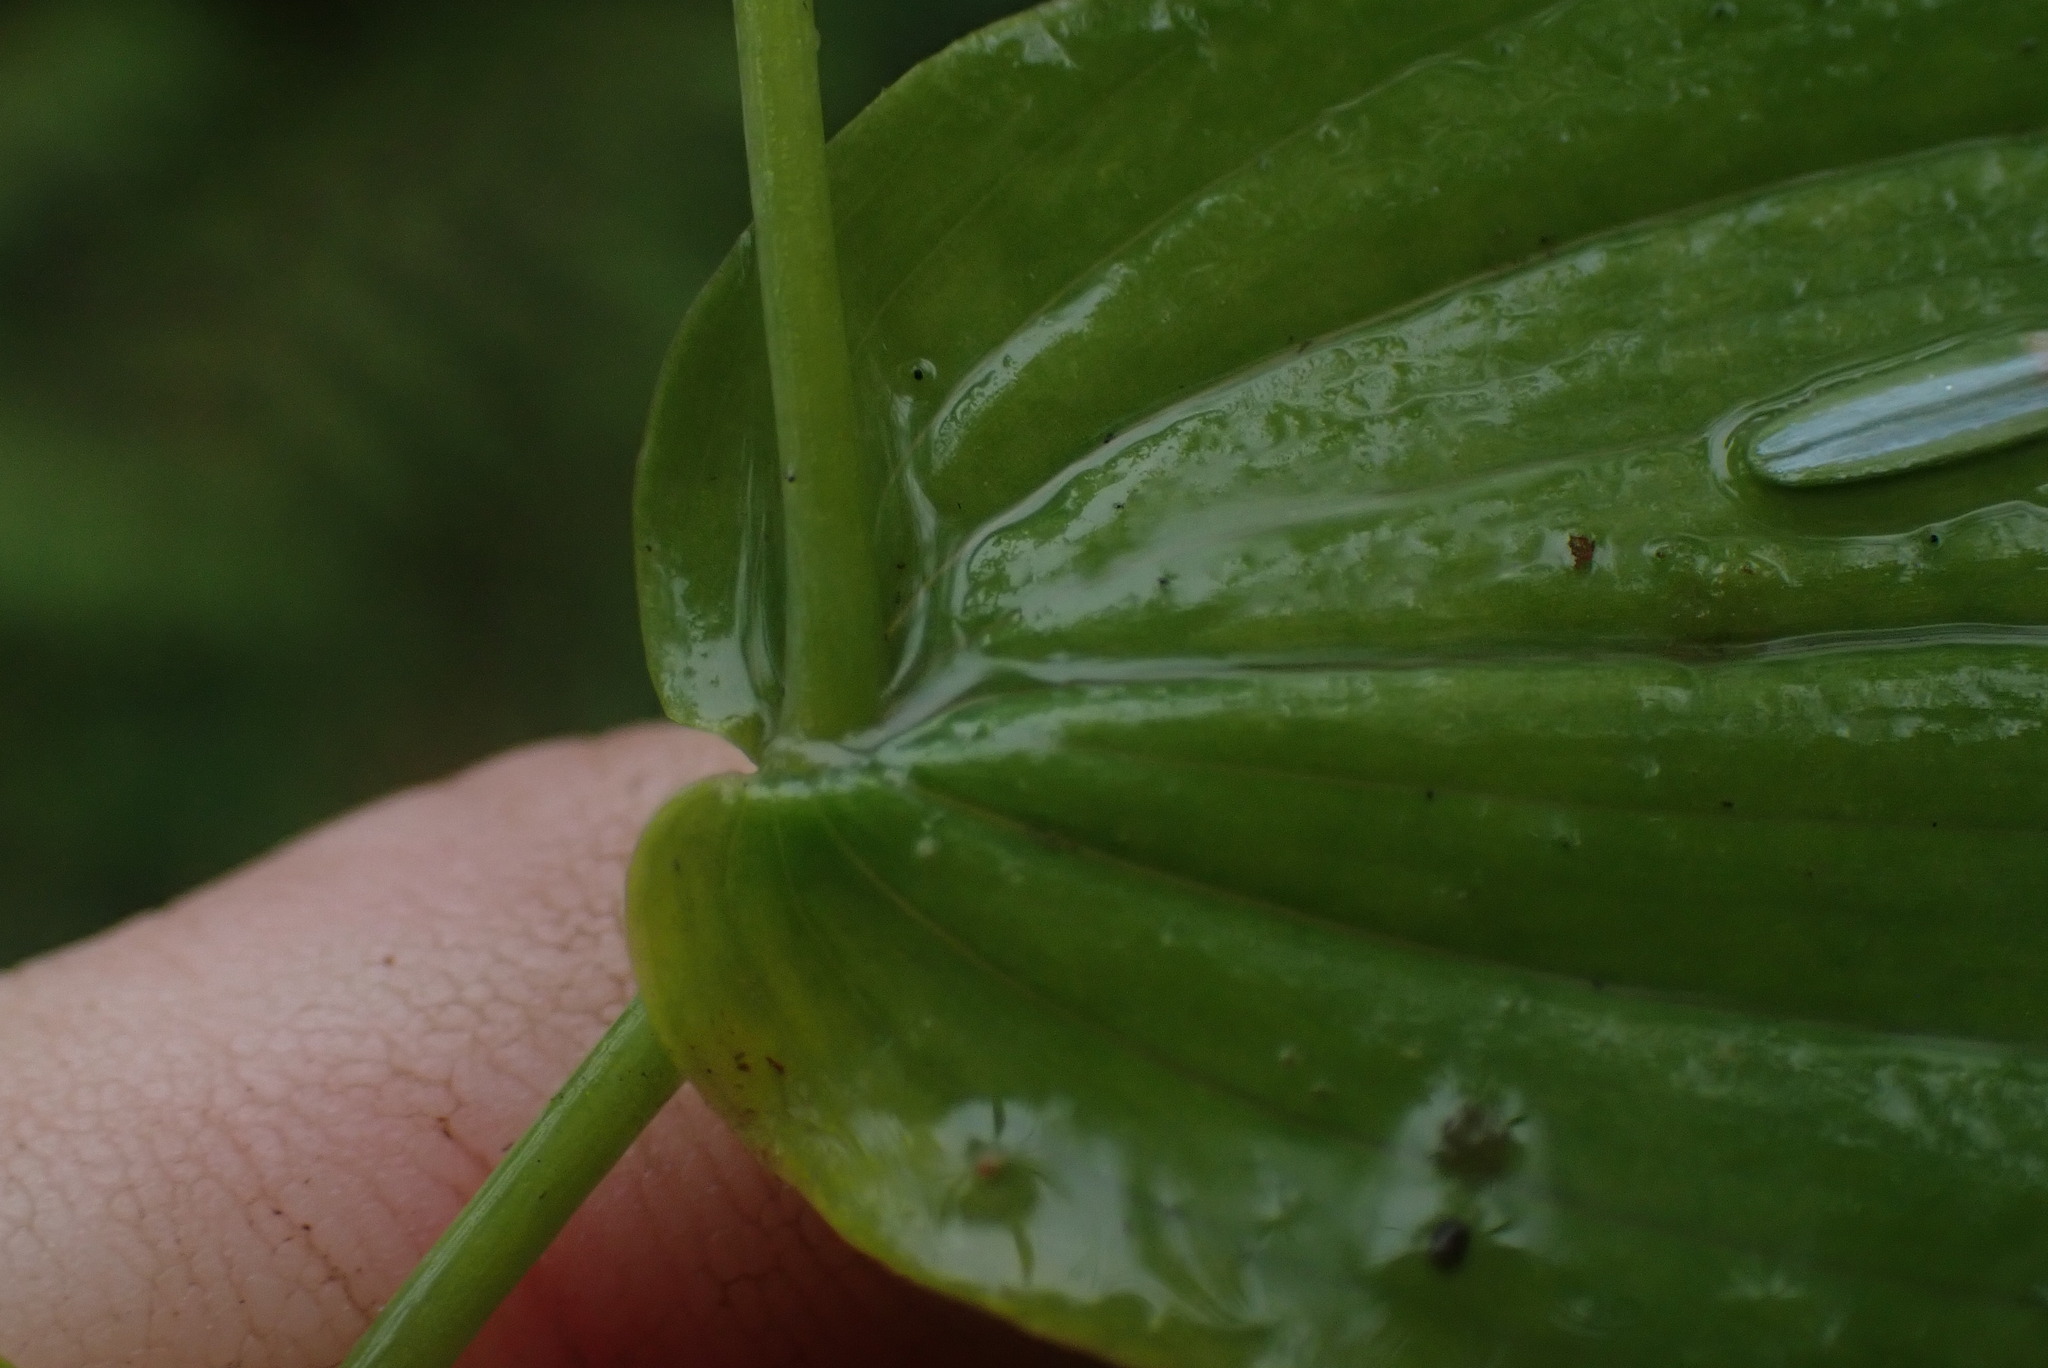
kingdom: Plantae
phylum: Tracheophyta
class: Liliopsida
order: Liliales
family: Liliaceae
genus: Streptopus
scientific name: Streptopus amplexifolius
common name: Clasp twisted stalk
